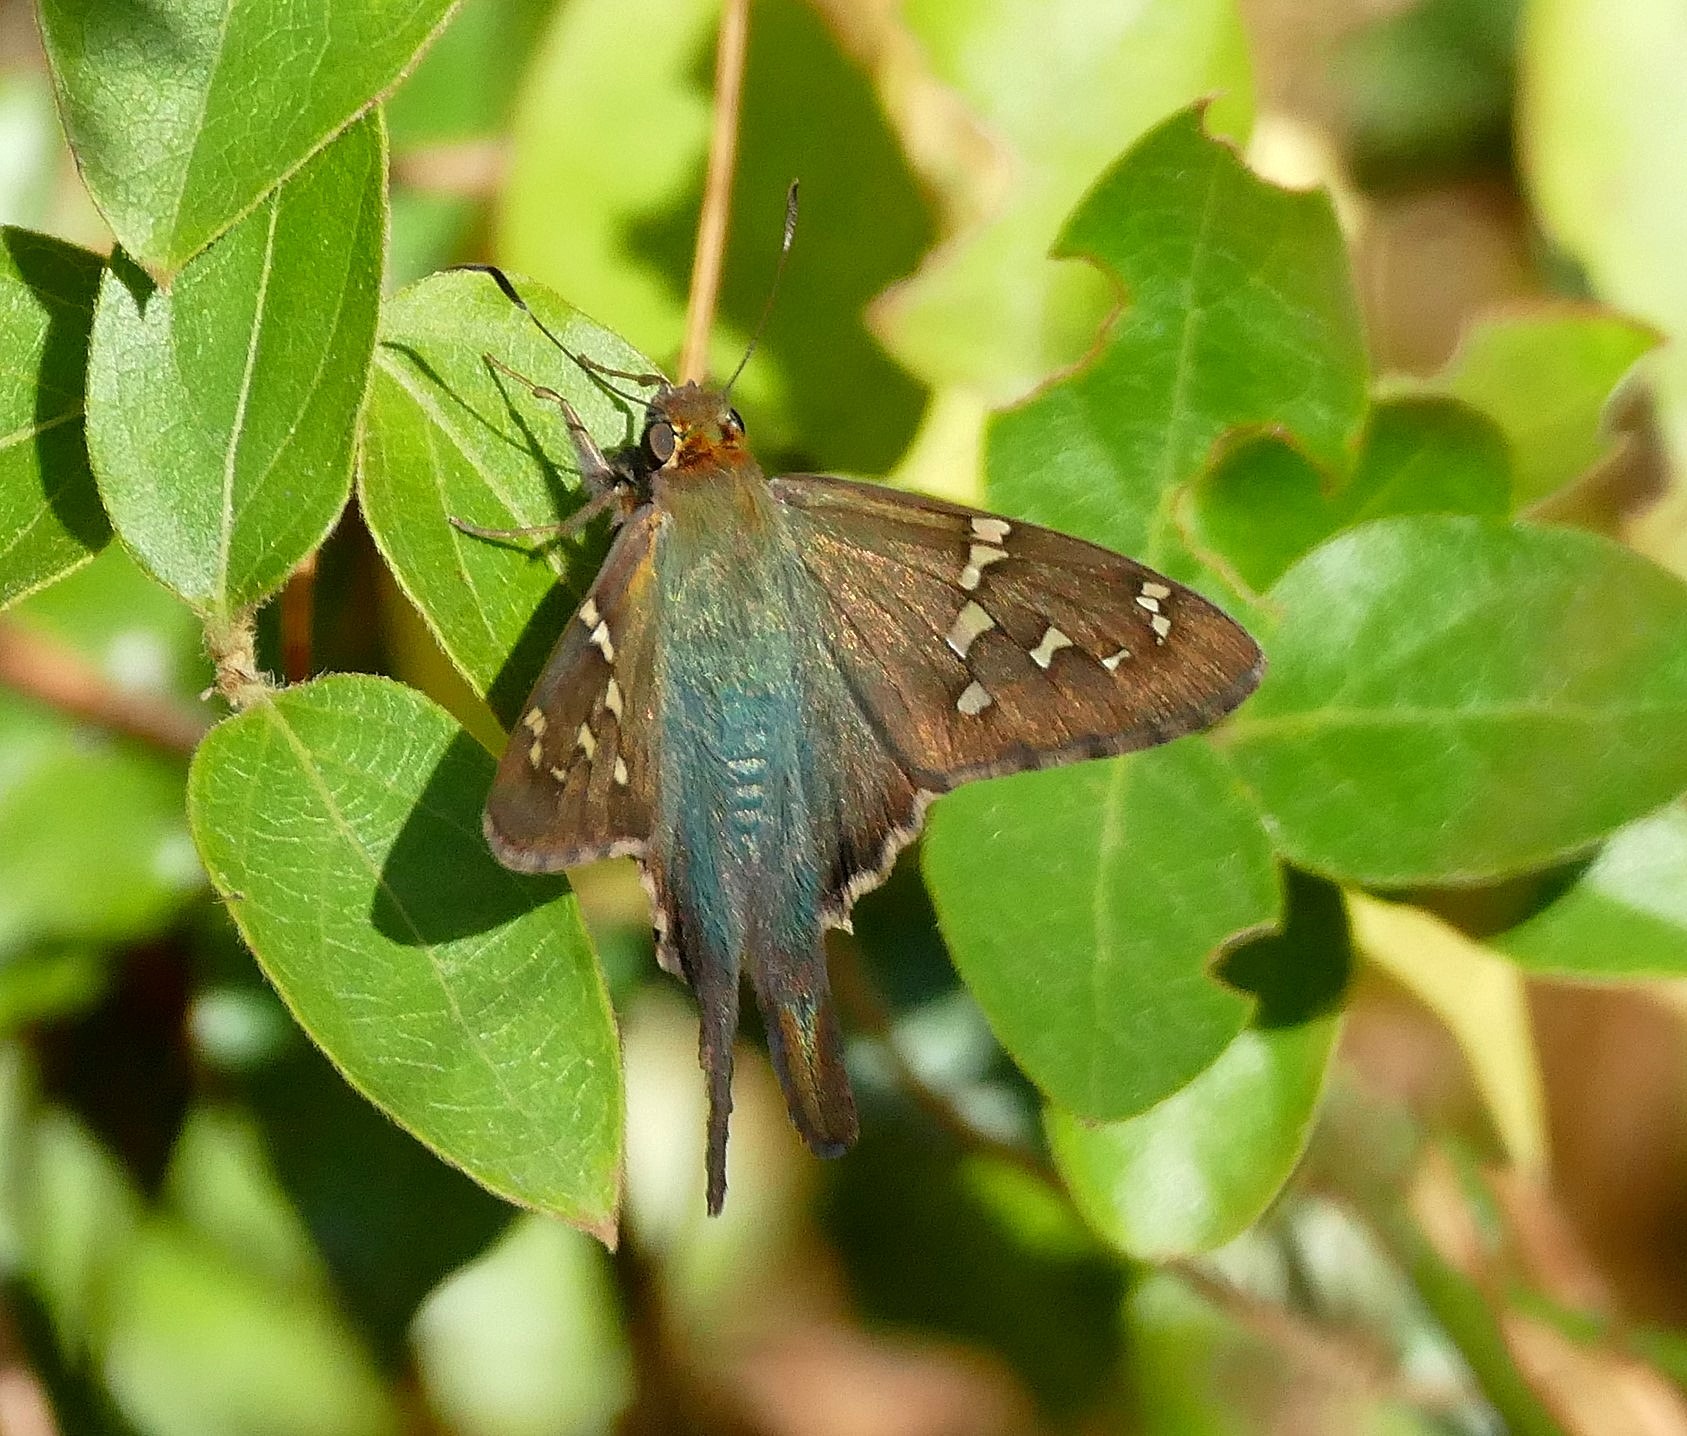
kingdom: Animalia
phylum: Arthropoda
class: Insecta
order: Lepidoptera
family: Hesperiidae
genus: Urbanus
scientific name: Urbanus proteus
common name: Long-tailed skipper
